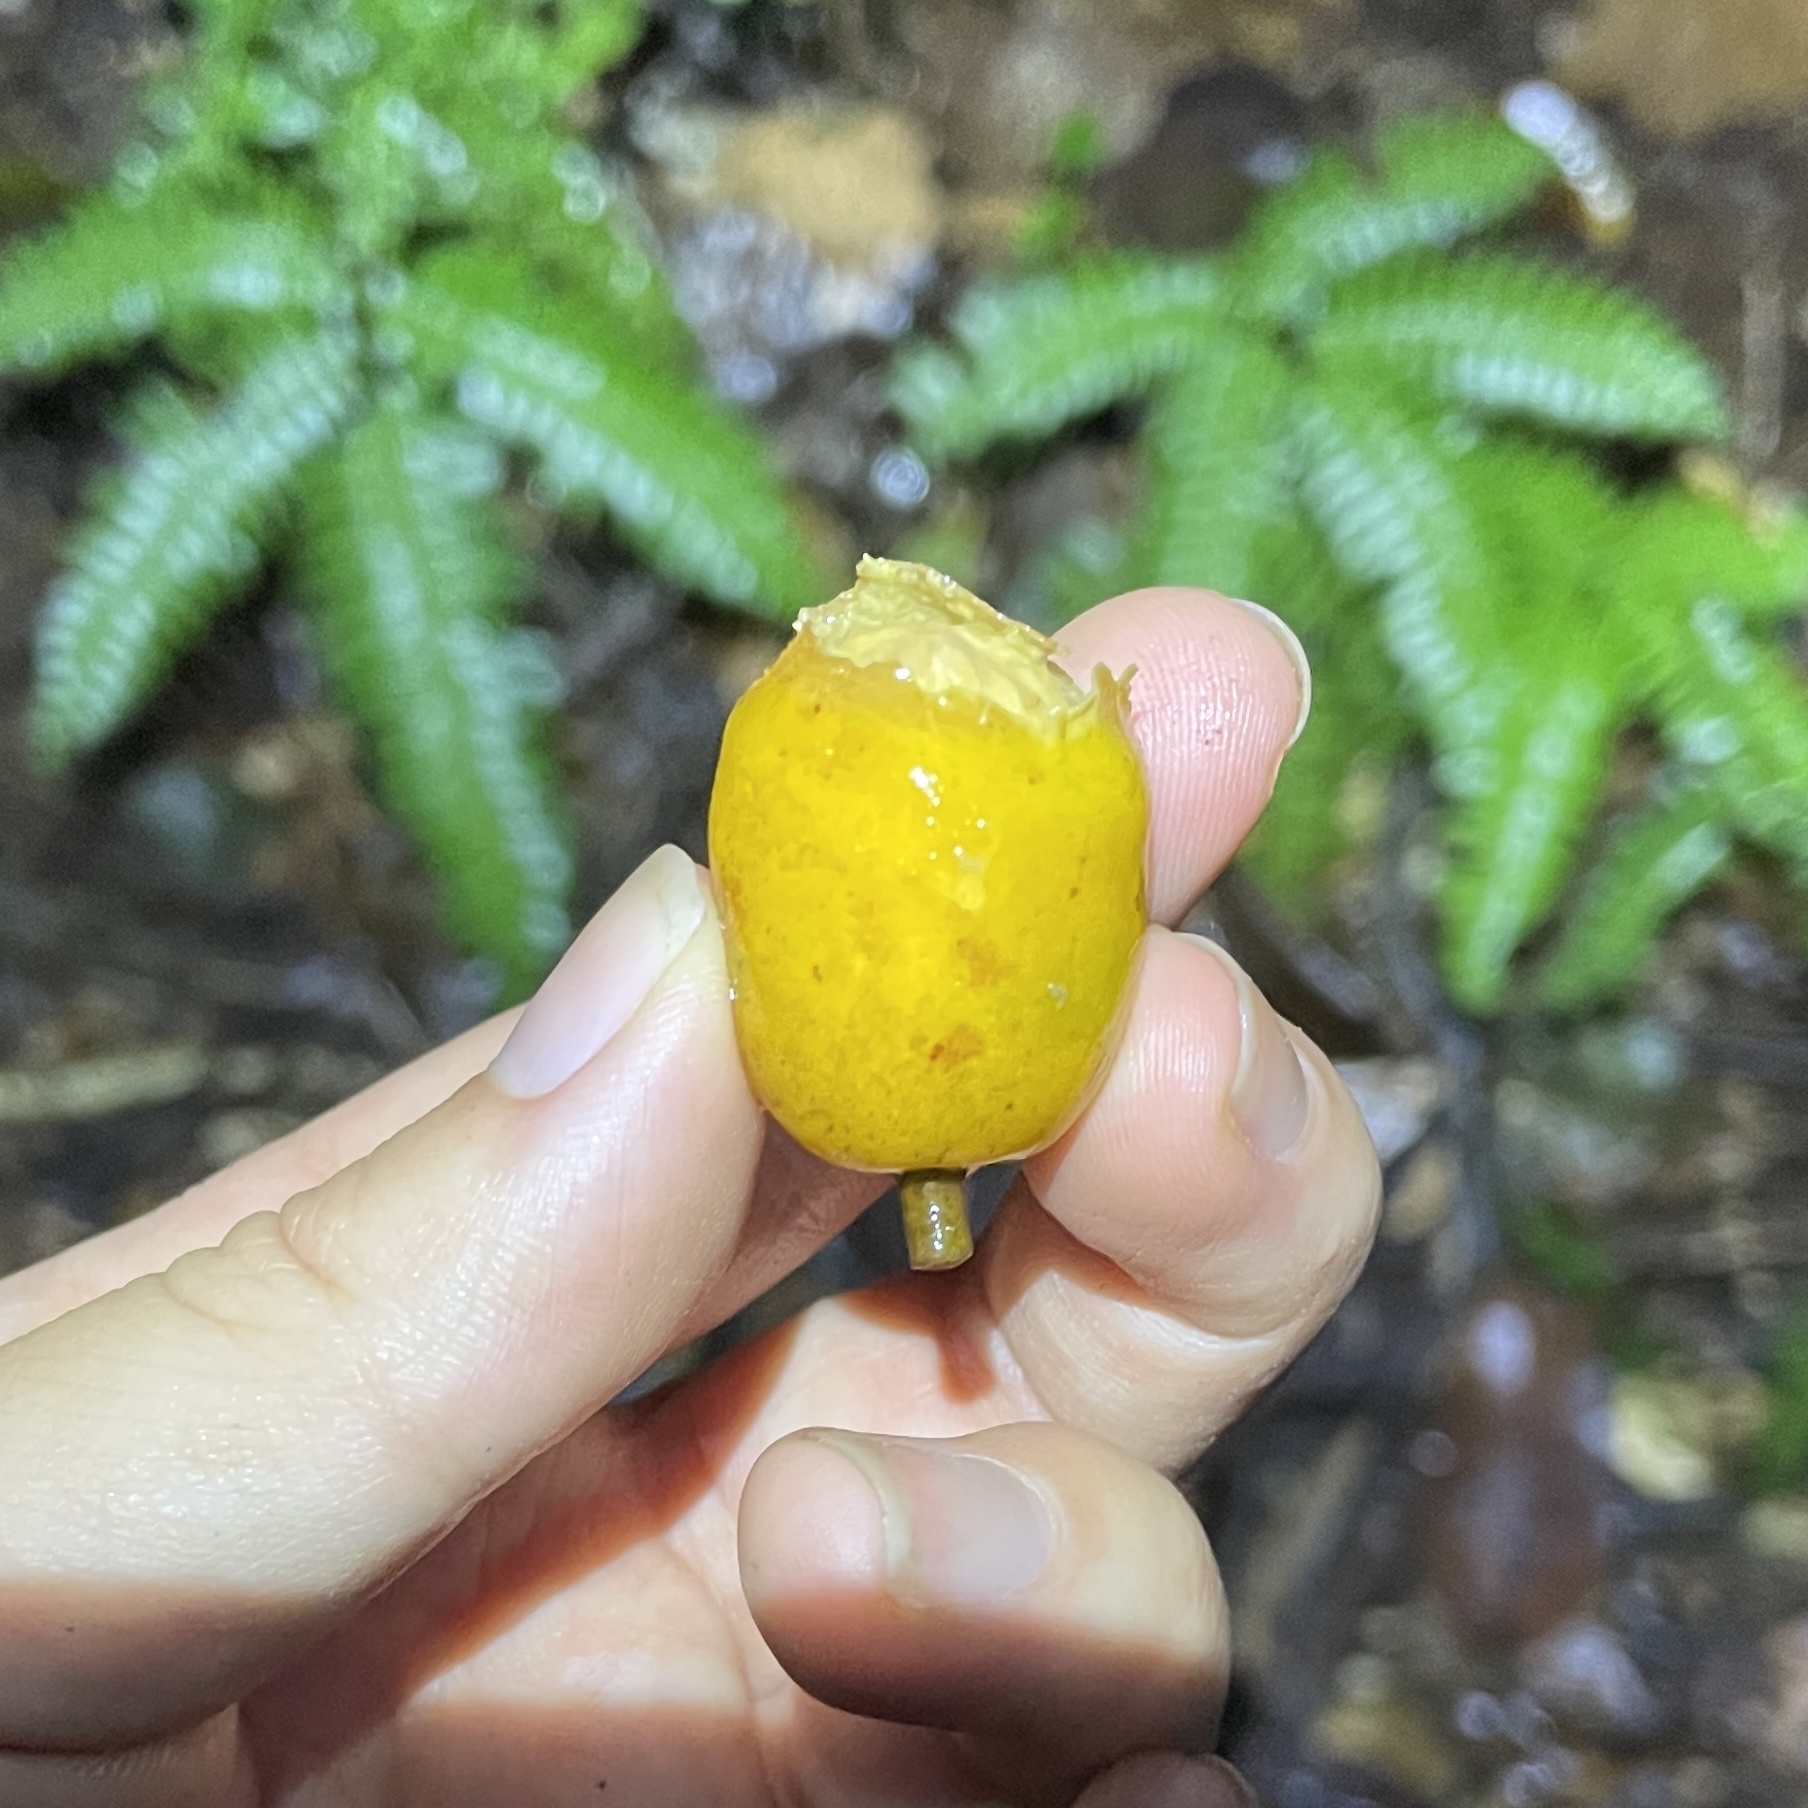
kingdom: Plantae
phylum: Tracheophyta
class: Magnoliopsida
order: Sapindales
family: Anacardiaceae
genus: Spondias
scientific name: Spondias mombin
